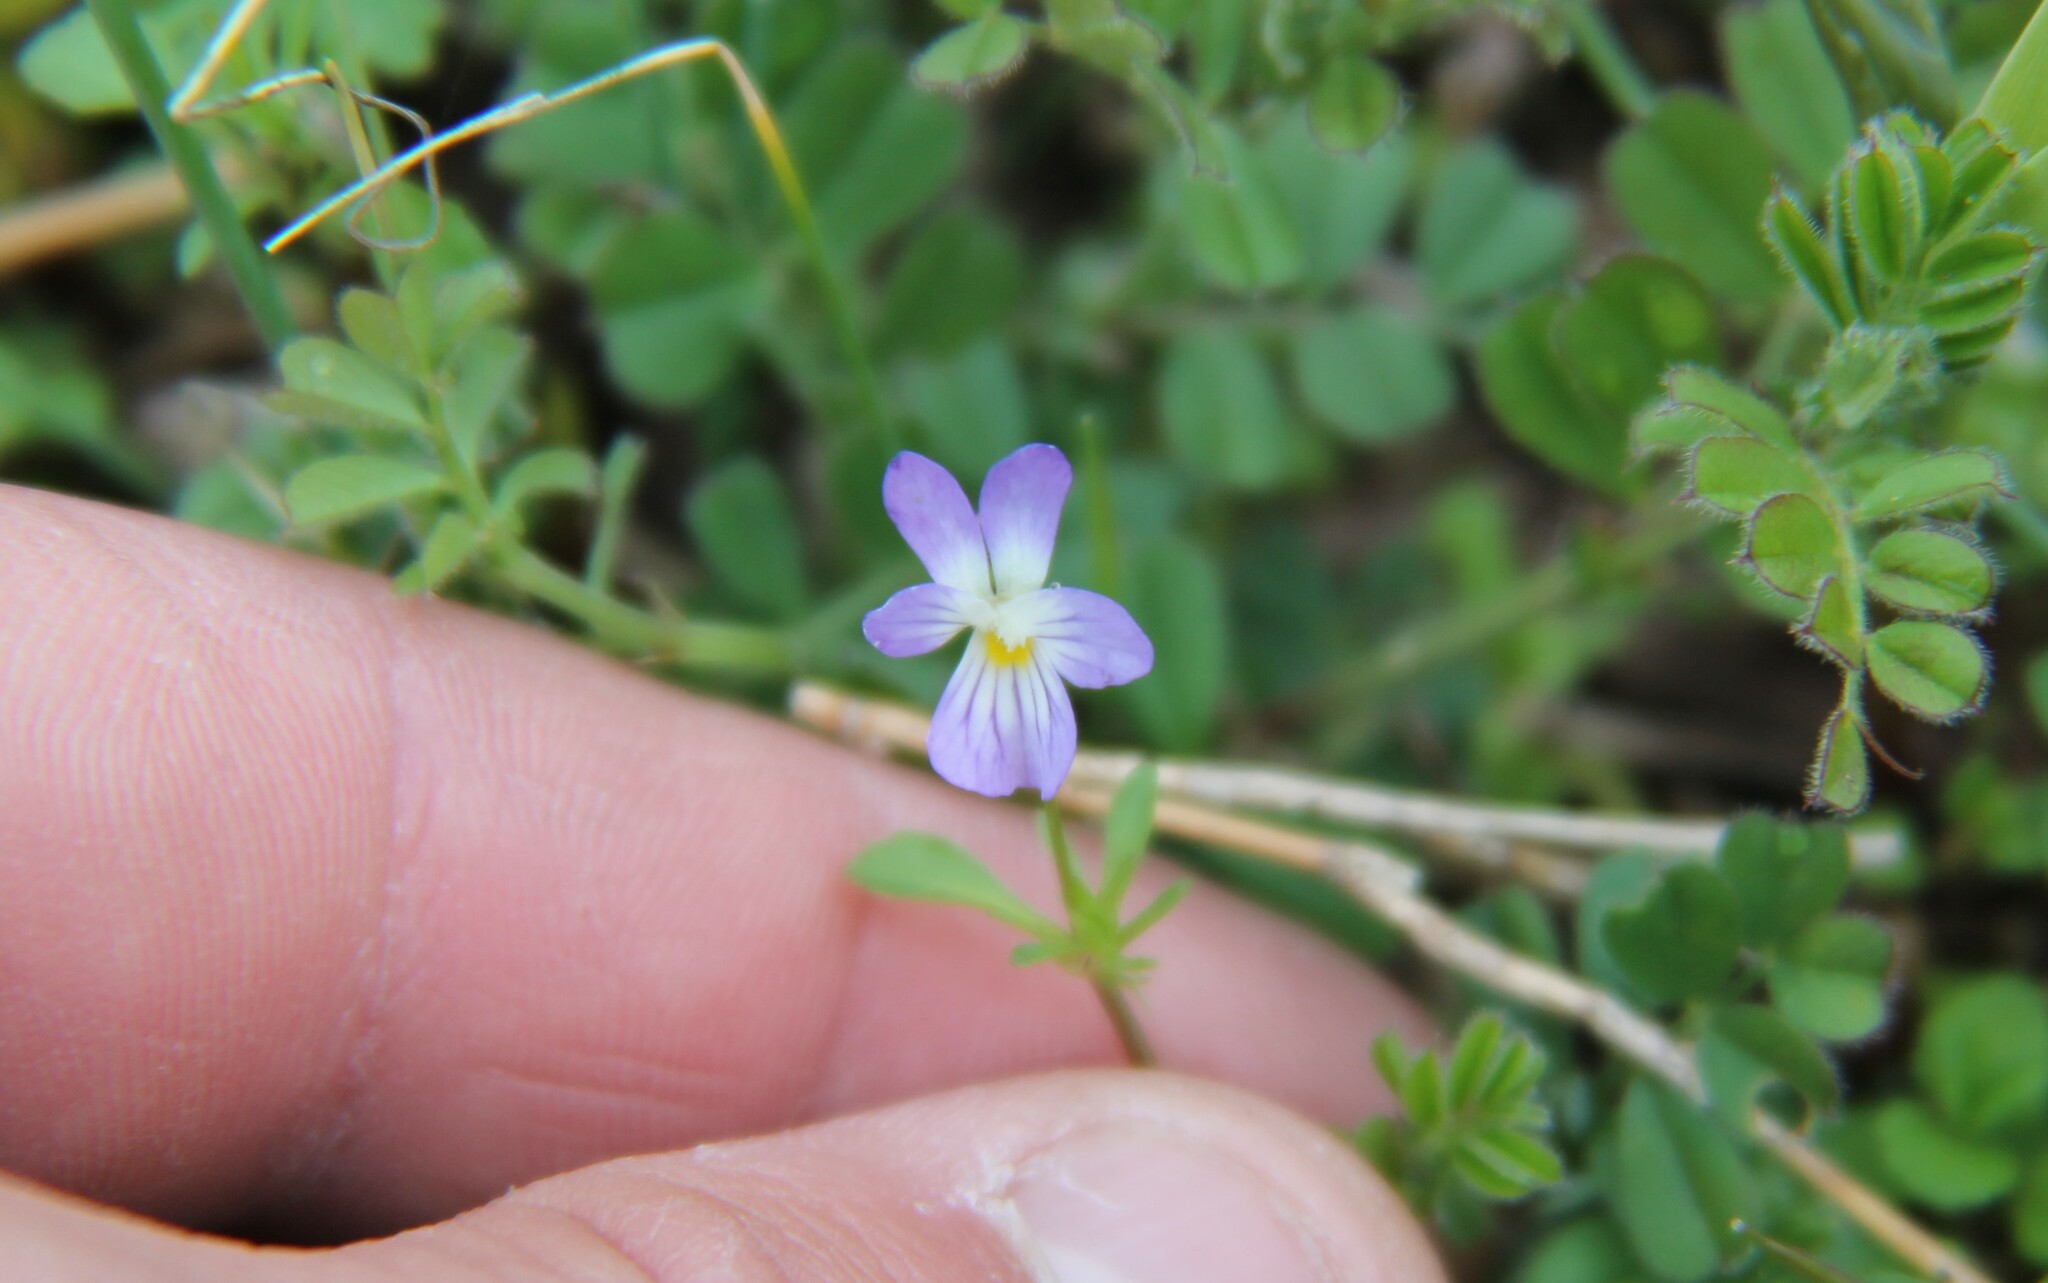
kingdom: Plantae
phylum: Tracheophyta
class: Magnoliopsida
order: Malpighiales
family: Violaceae
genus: Viola
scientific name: Viola rafinesquei
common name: American field pansy
